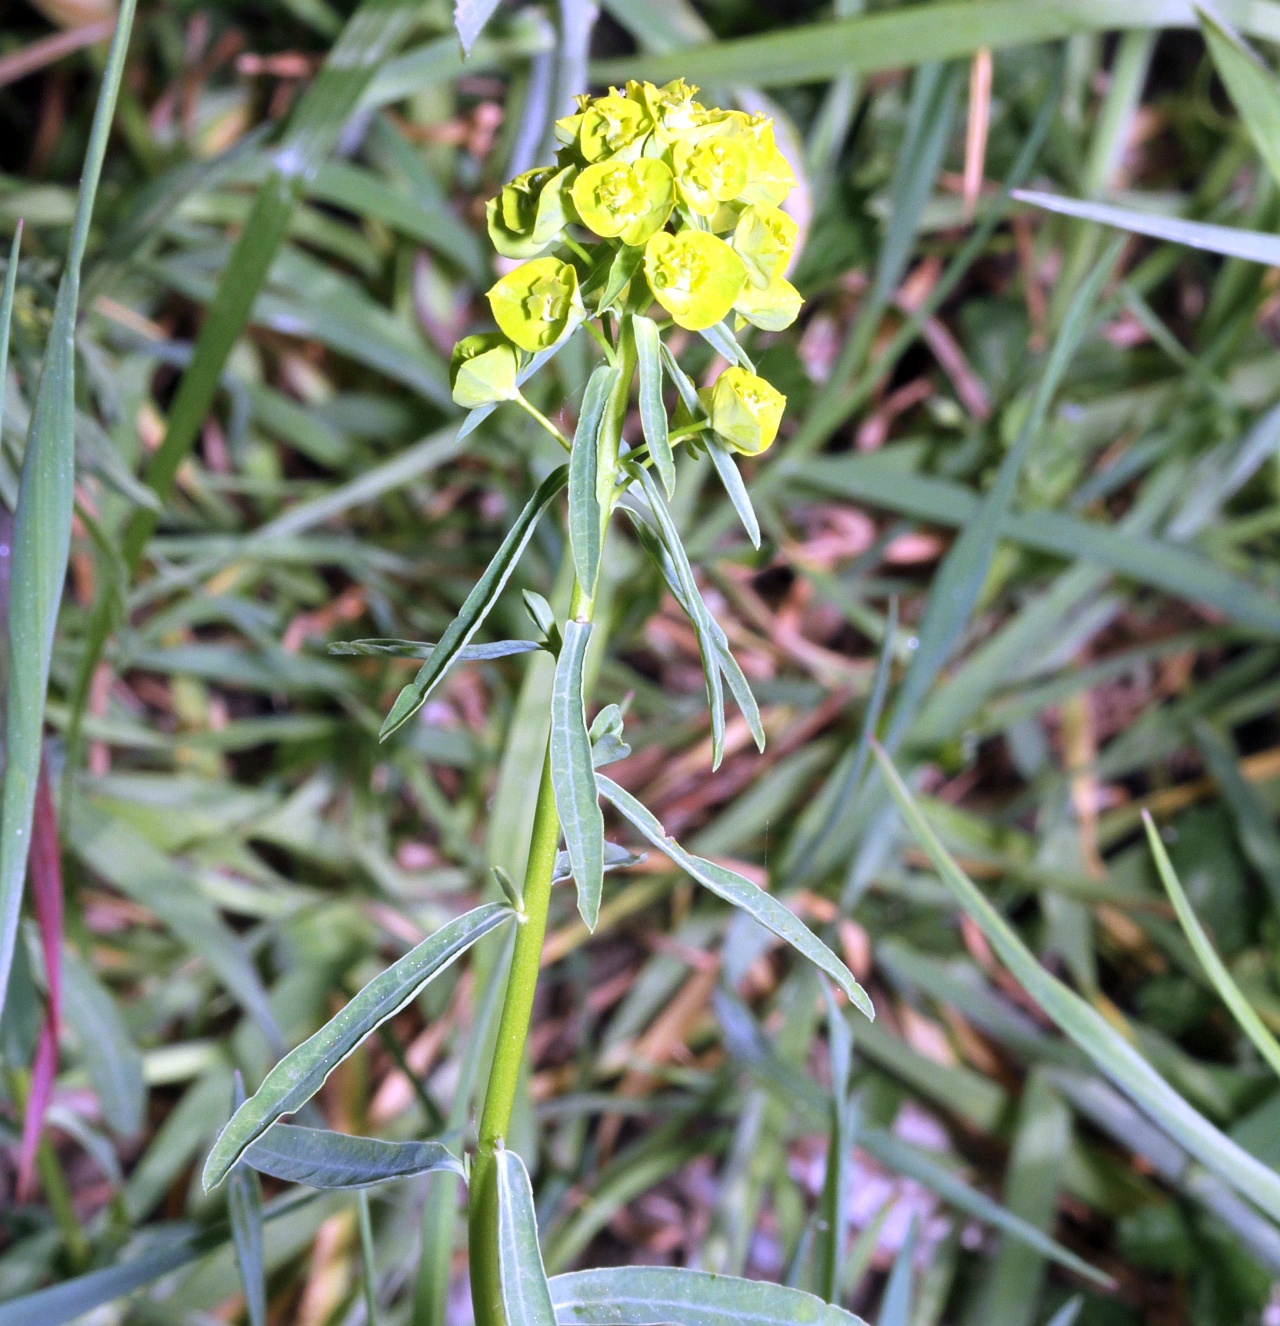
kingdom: Plantae
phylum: Tracheophyta
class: Magnoliopsida
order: Malpighiales
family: Euphorbiaceae
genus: Euphorbia
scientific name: Euphorbia esula
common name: Leafy spurge
